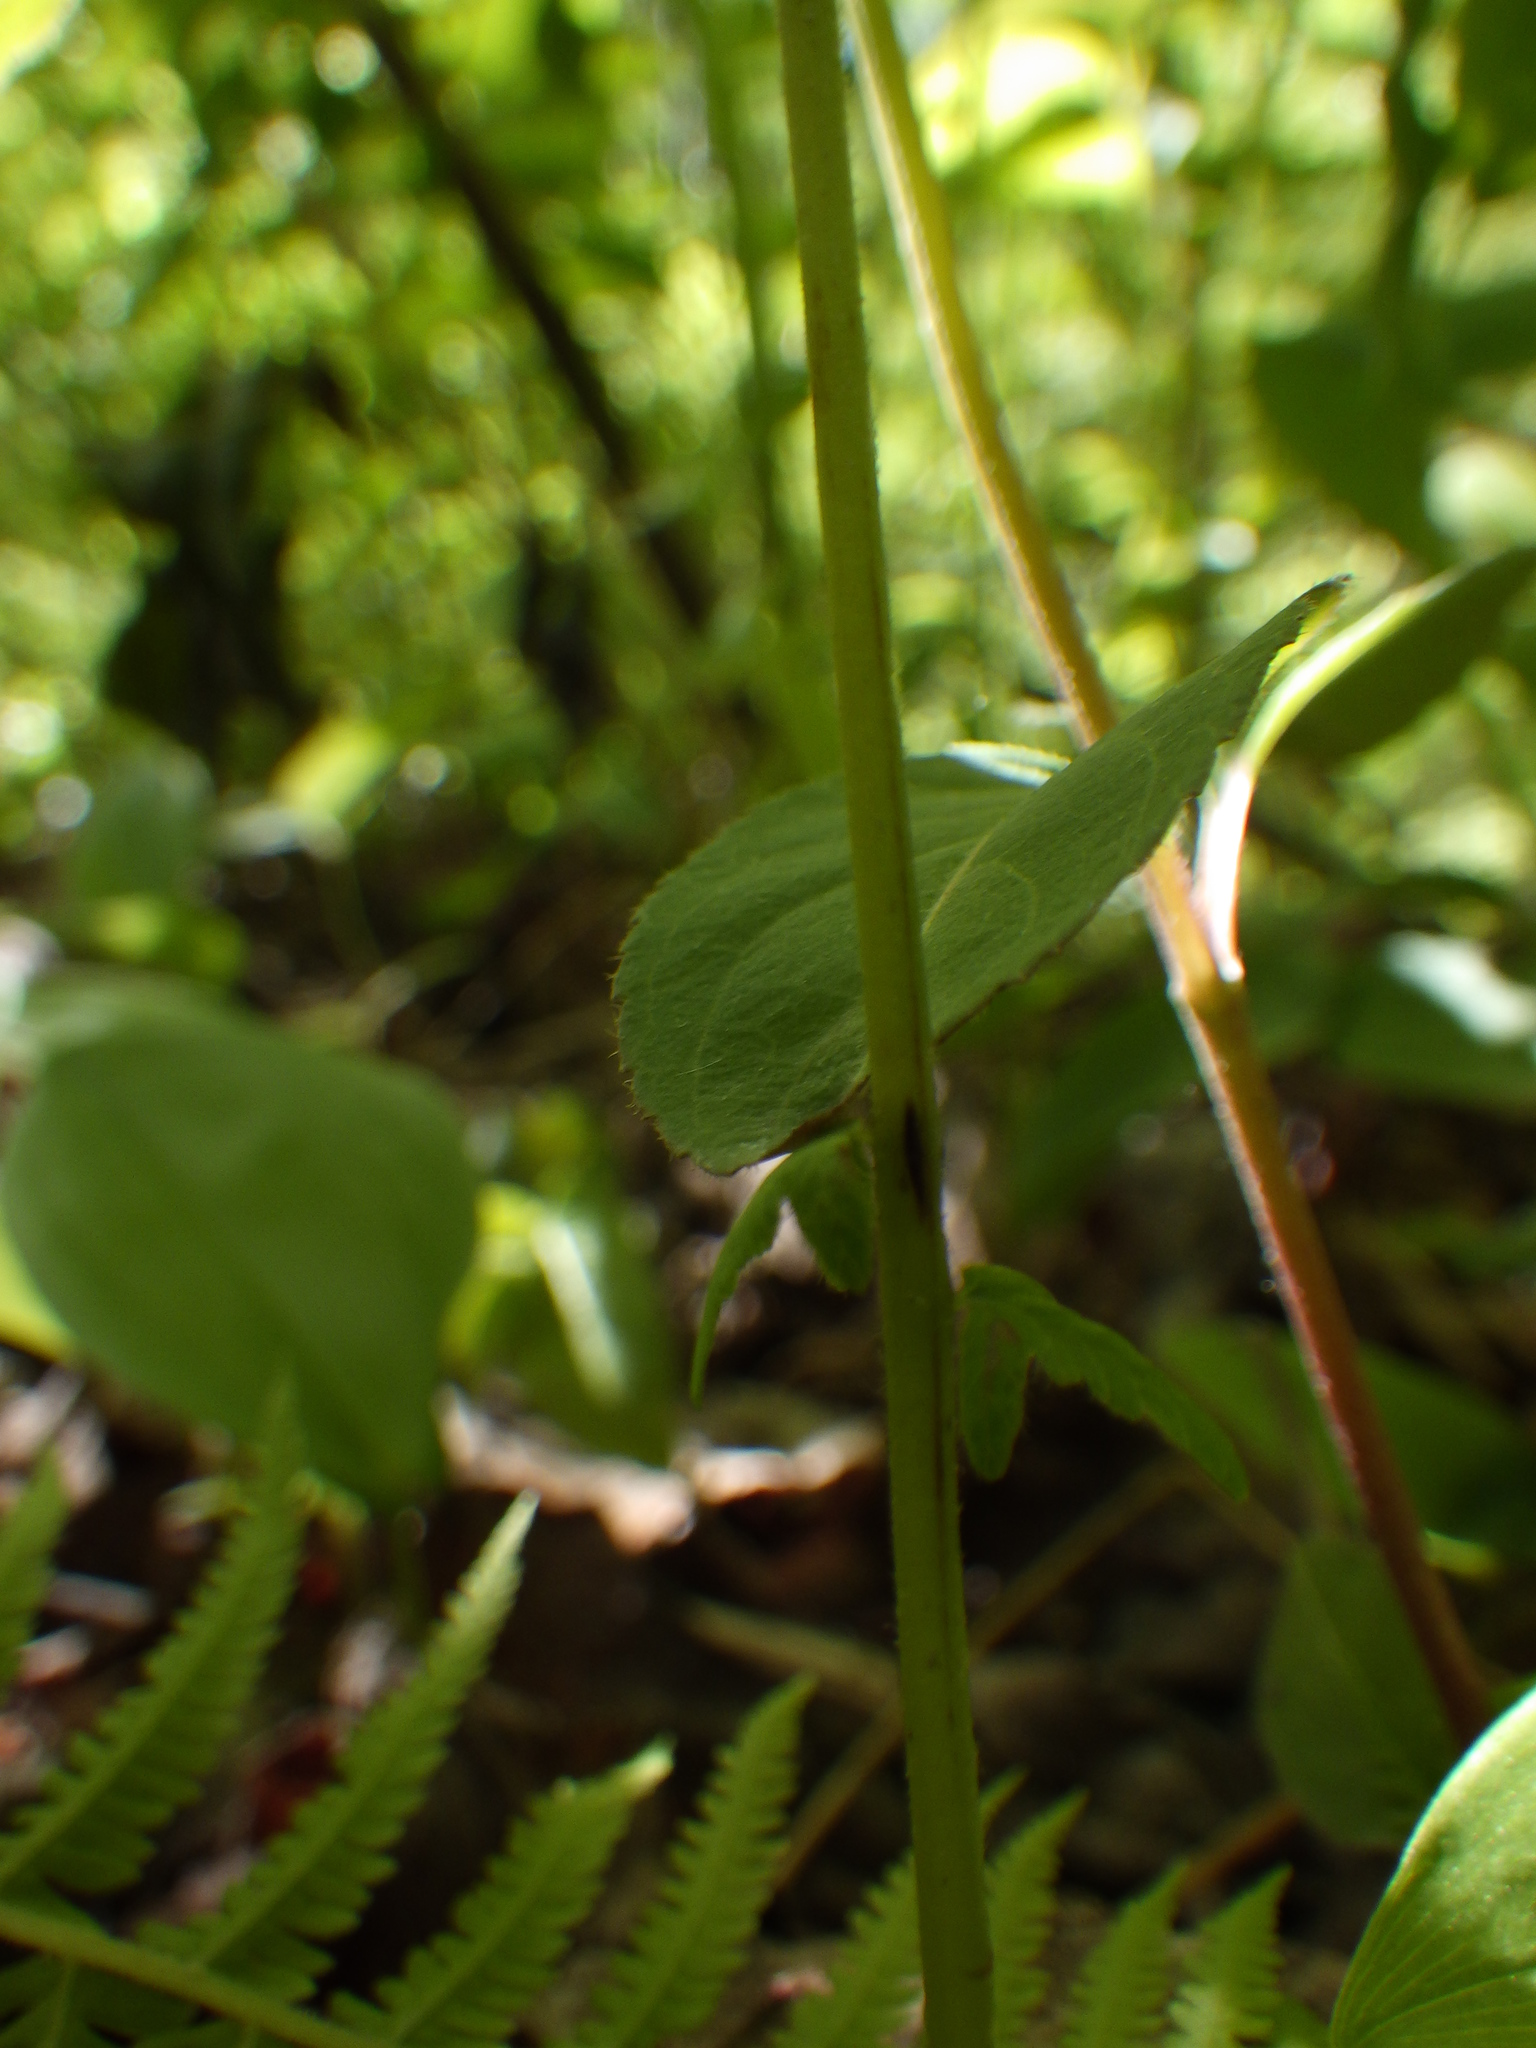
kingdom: Plantae
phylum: Tracheophyta
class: Polypodiopsida
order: Polypodiales
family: Onocleaceae
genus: Matteuccia
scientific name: Matteuccia struthiopteris
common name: Ostrich fern
